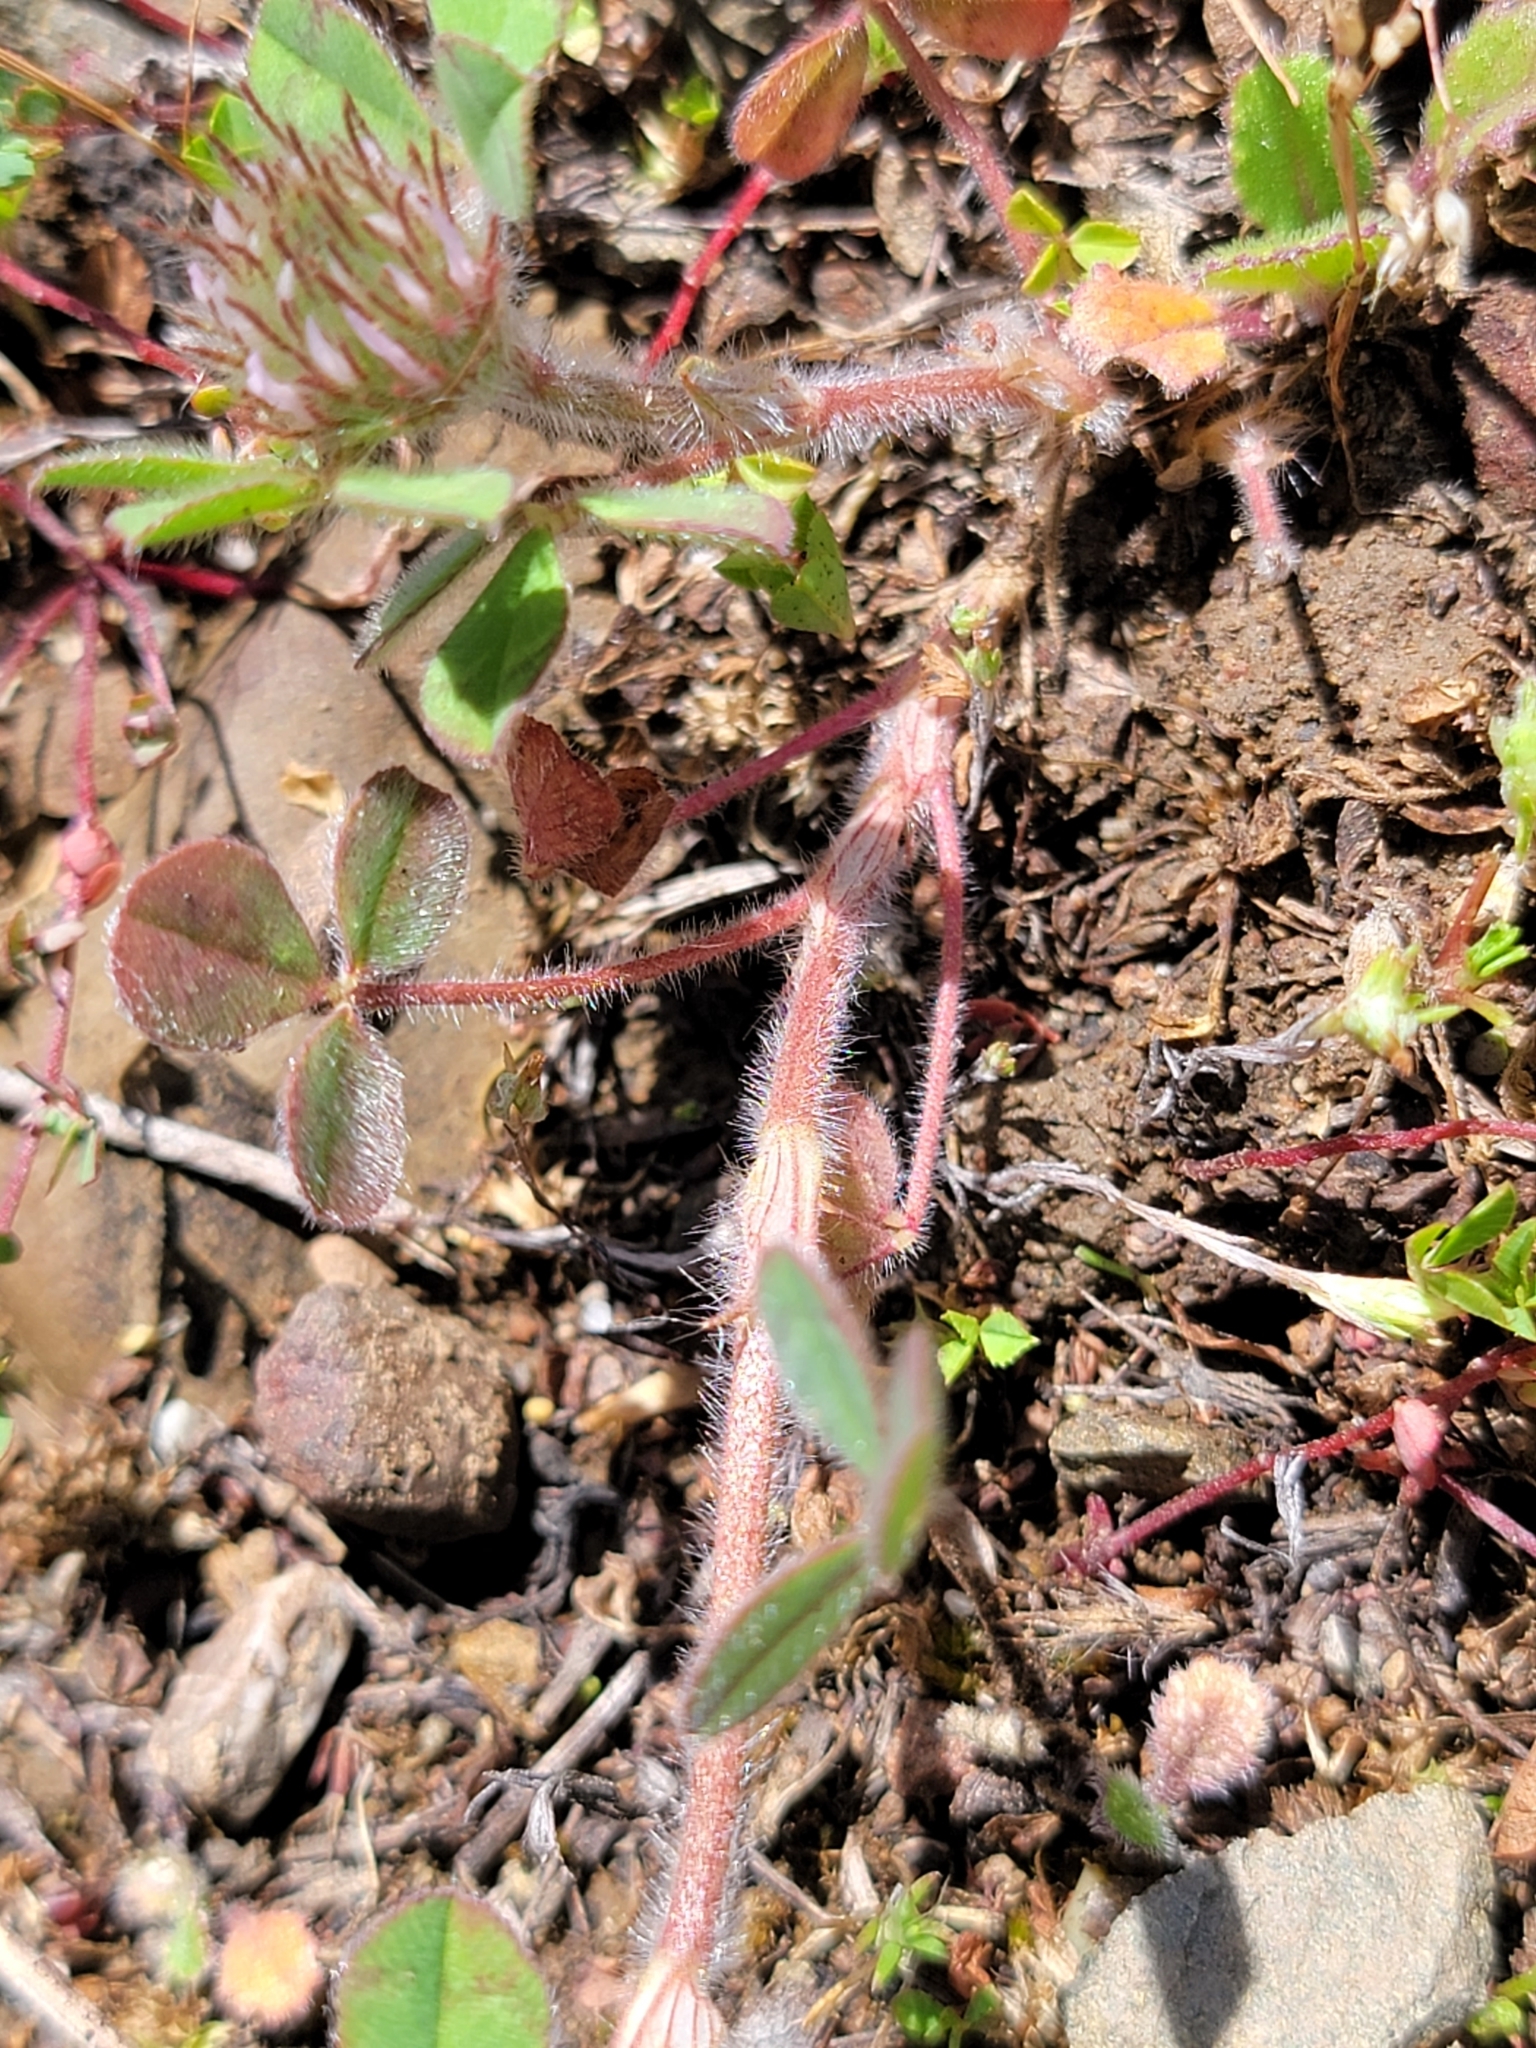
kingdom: Plantae
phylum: Tracheophyta
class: Magnoliopsida
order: Fabales
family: Fabaceae
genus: Trifolium
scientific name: Trifolium hirtum
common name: Rose clover
